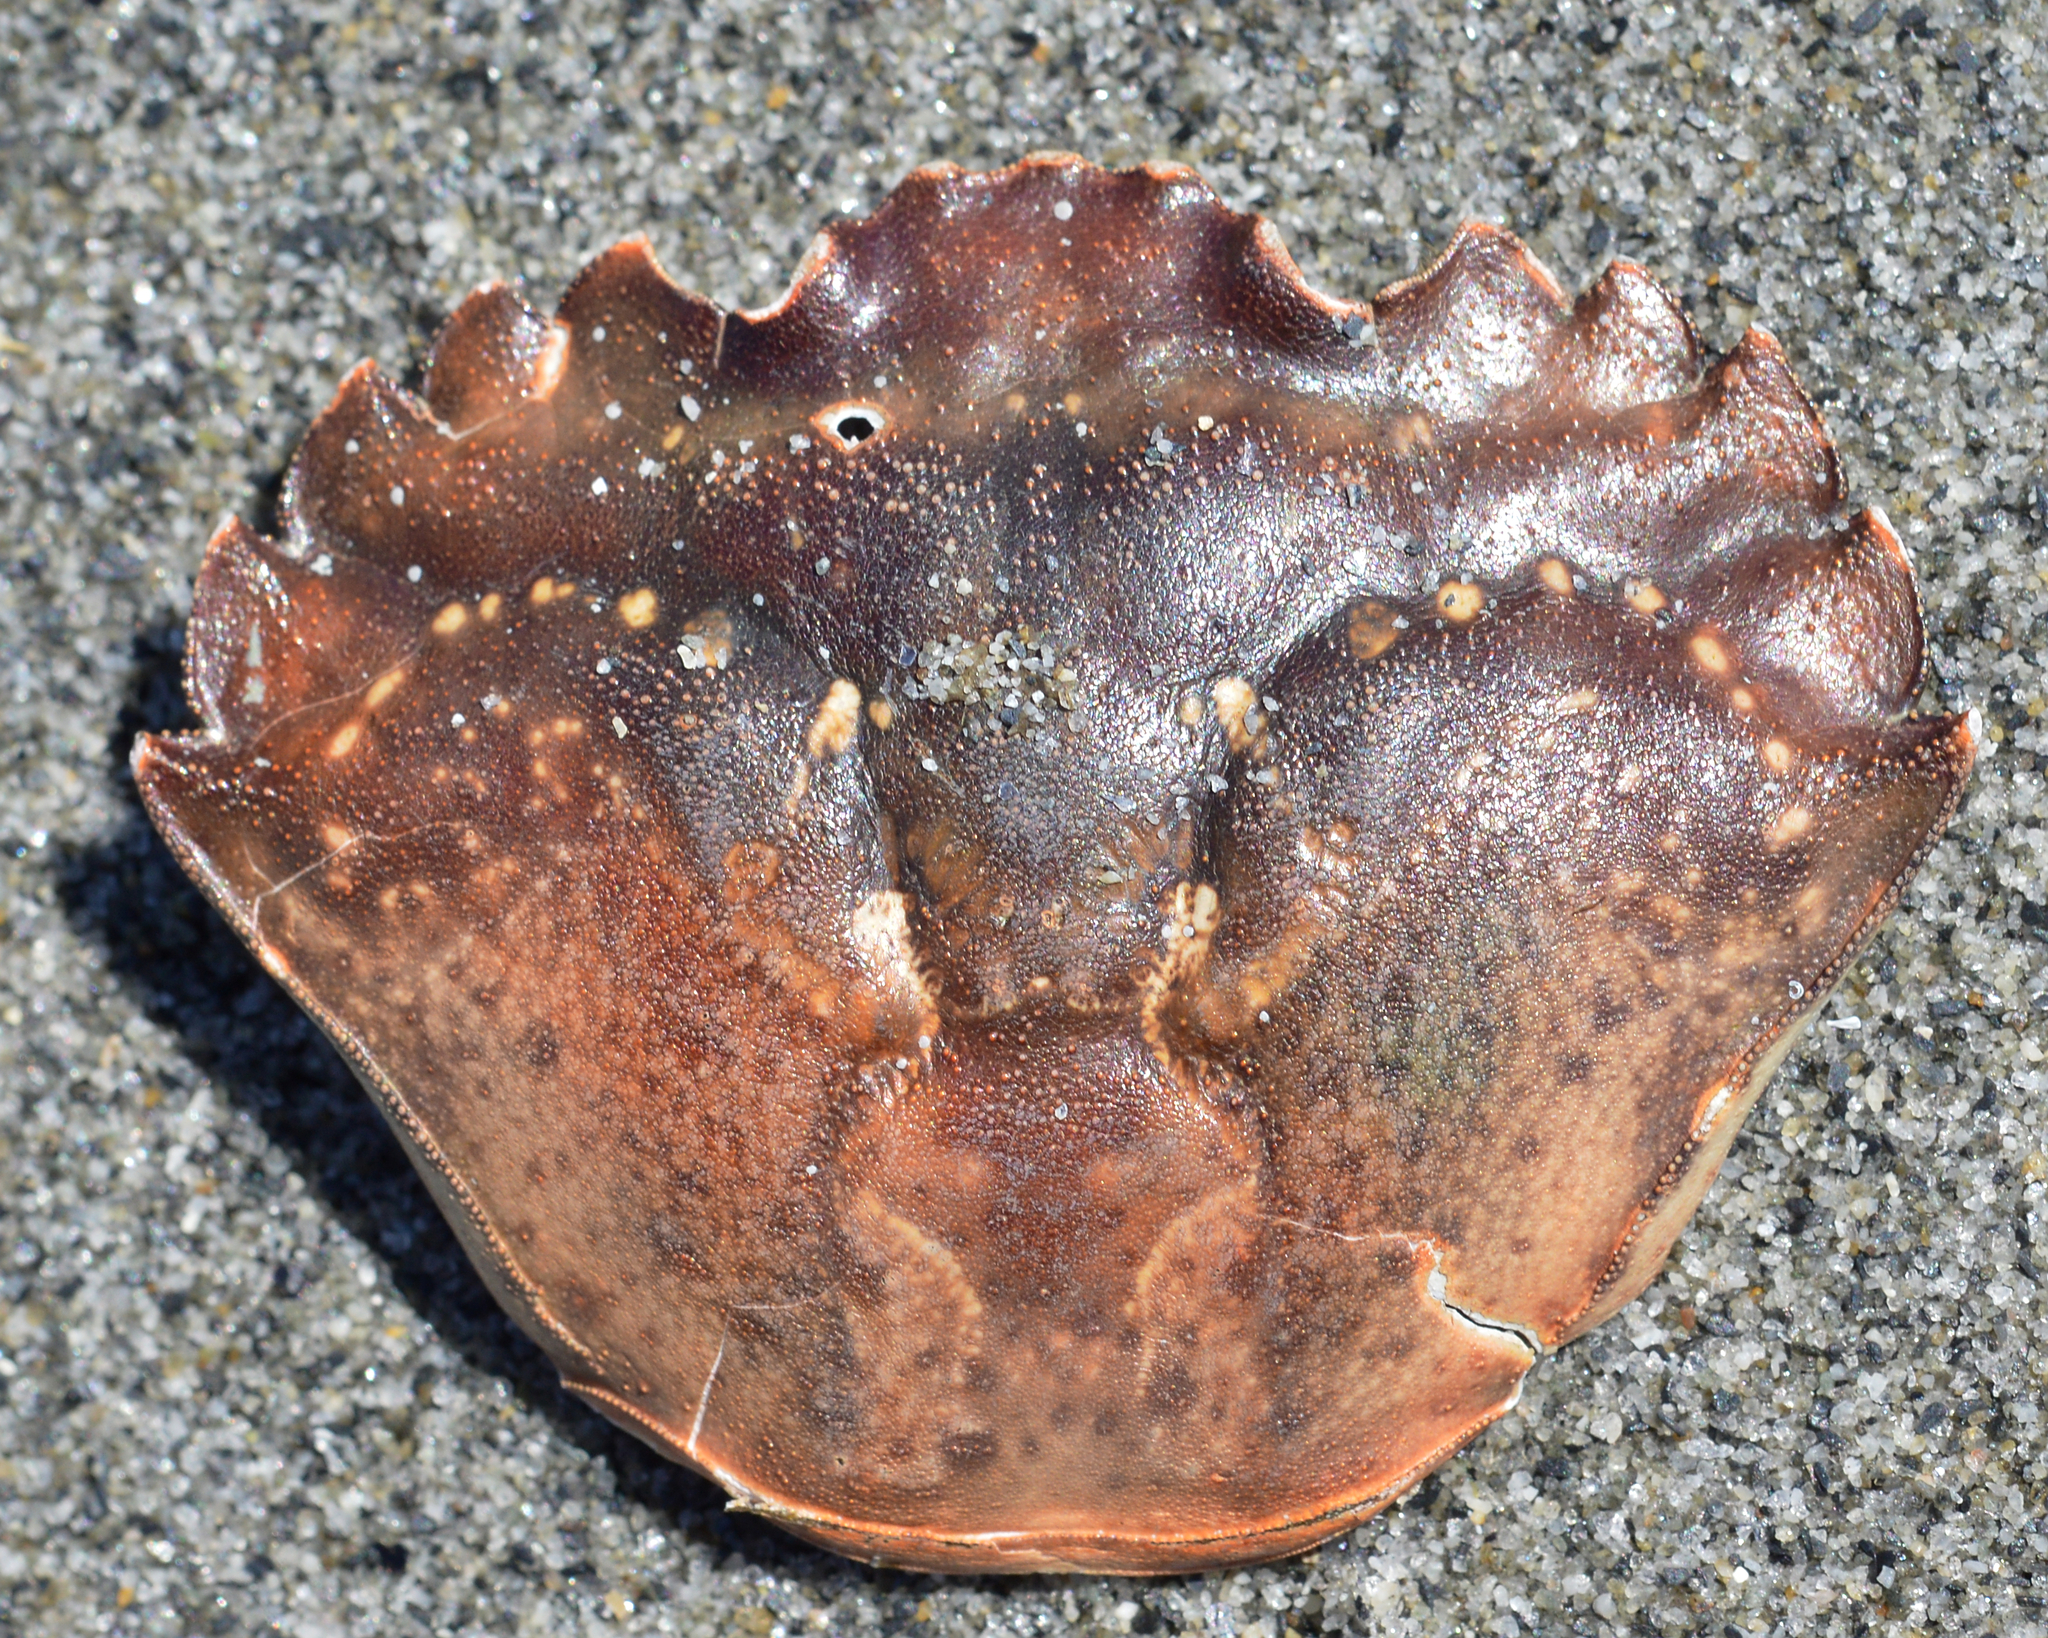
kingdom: Animalia
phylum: Arthropoda
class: Malacostraca
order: Decapoda
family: Carcinidae
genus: Carcinus
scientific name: Carcinus maenas
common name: European green crab
